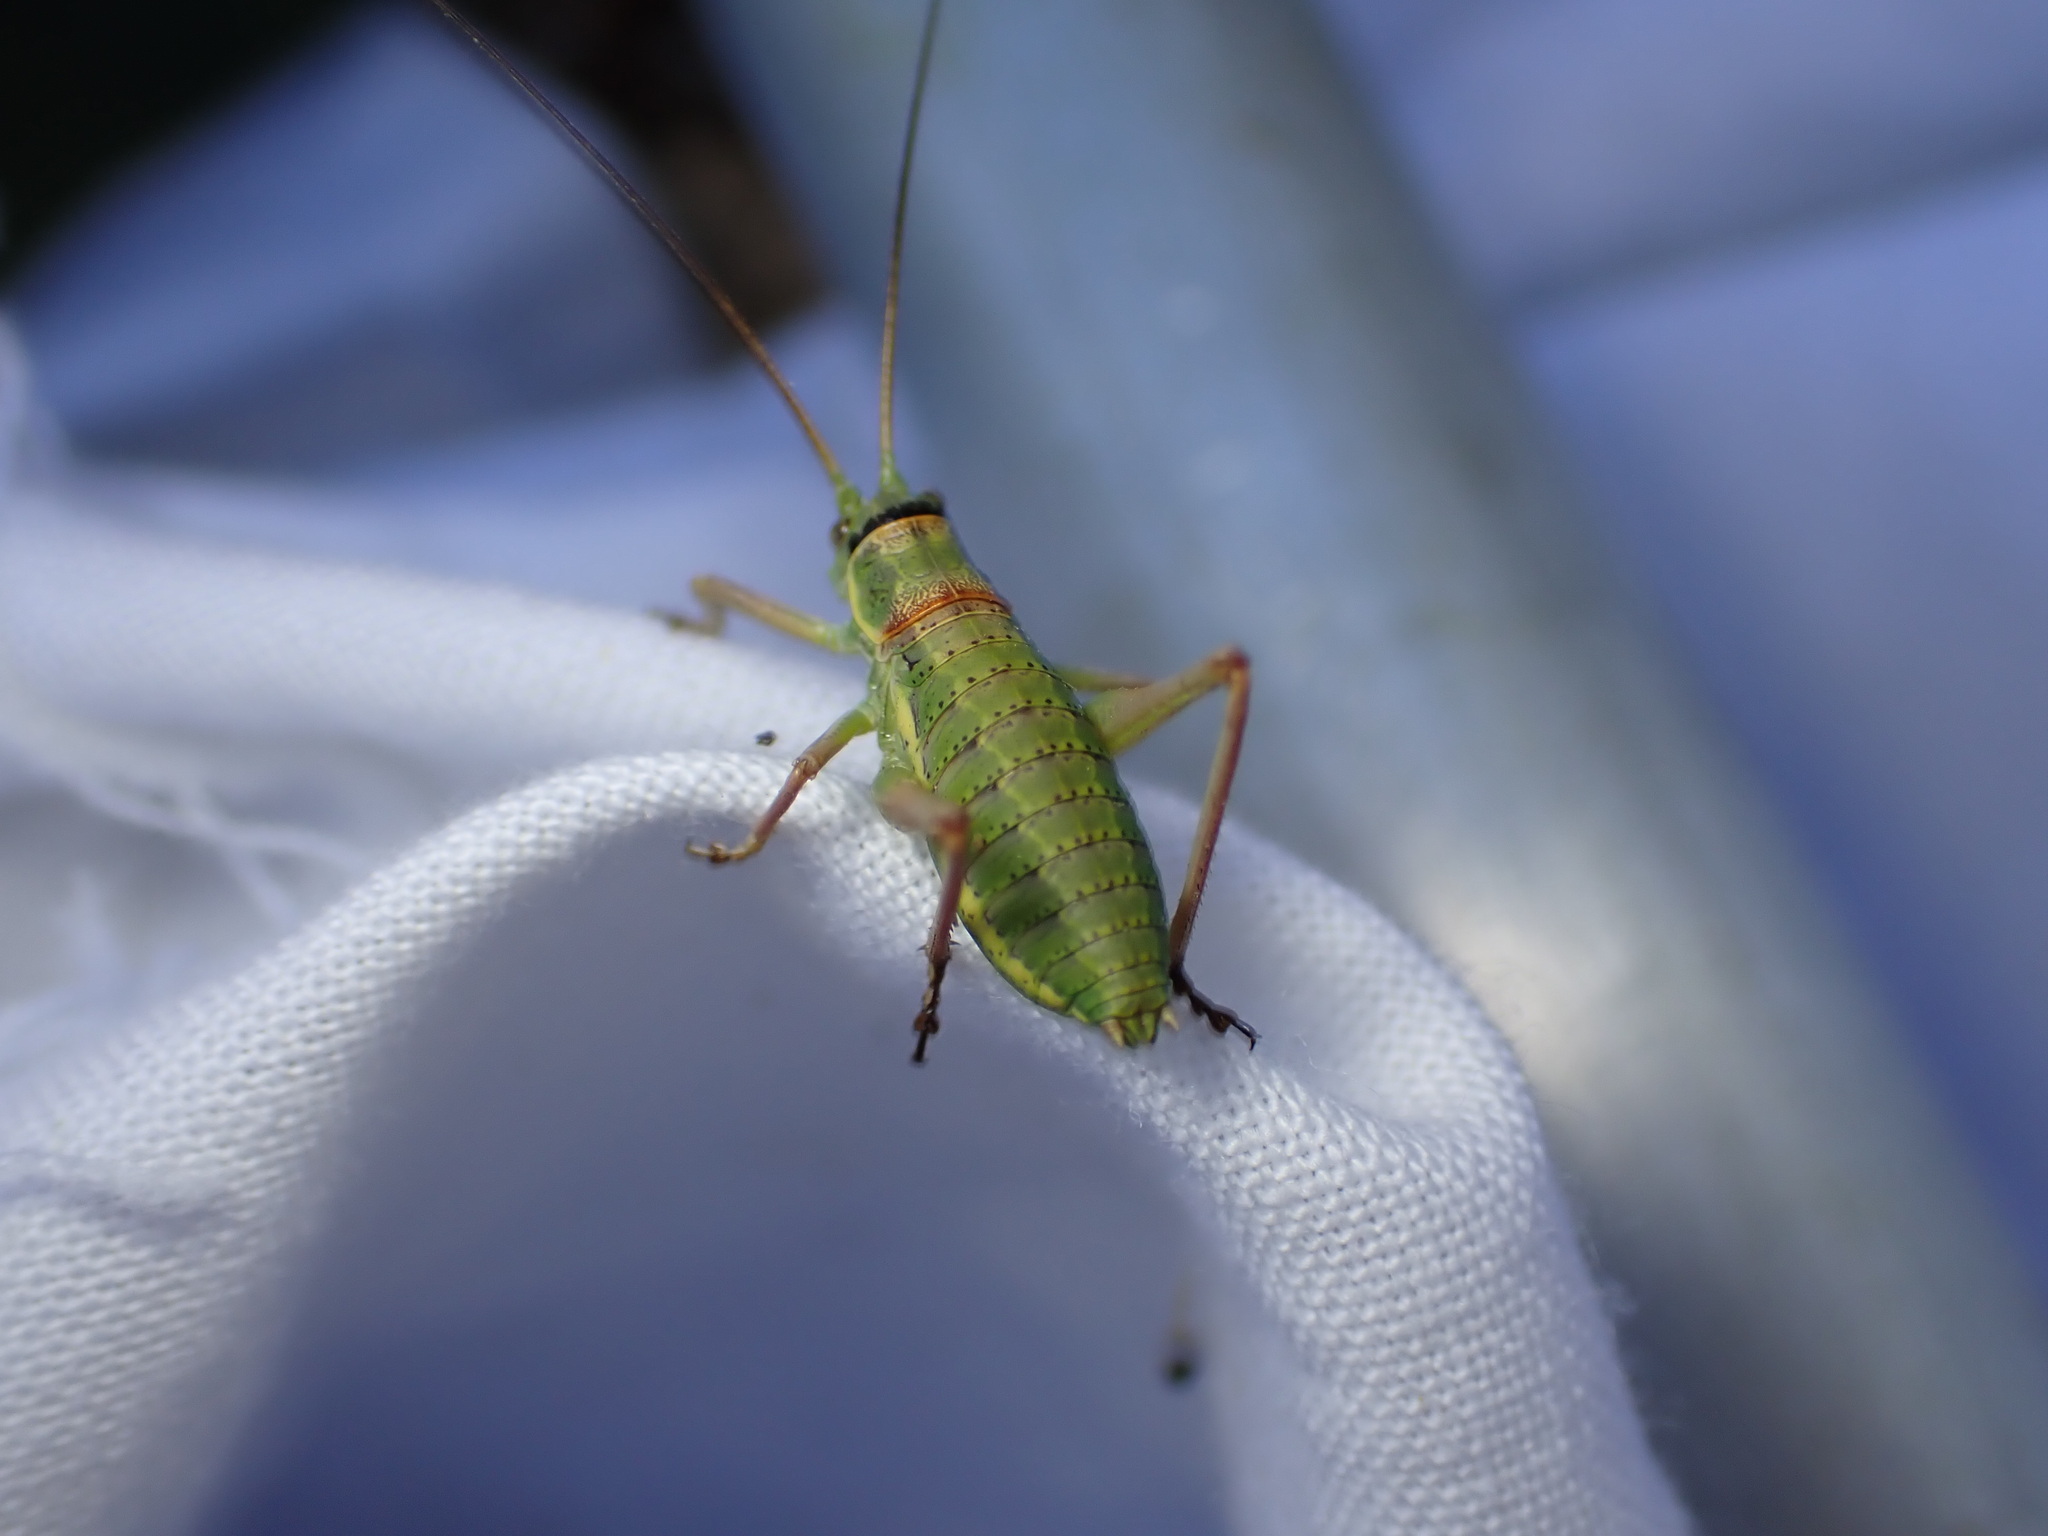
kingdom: Animalia
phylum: Arthropoda
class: Insecta
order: Orthoptera
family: Tettigoniidae
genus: Ephippiger
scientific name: Ephippiger diurnus
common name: Western saddle bush-cricket
